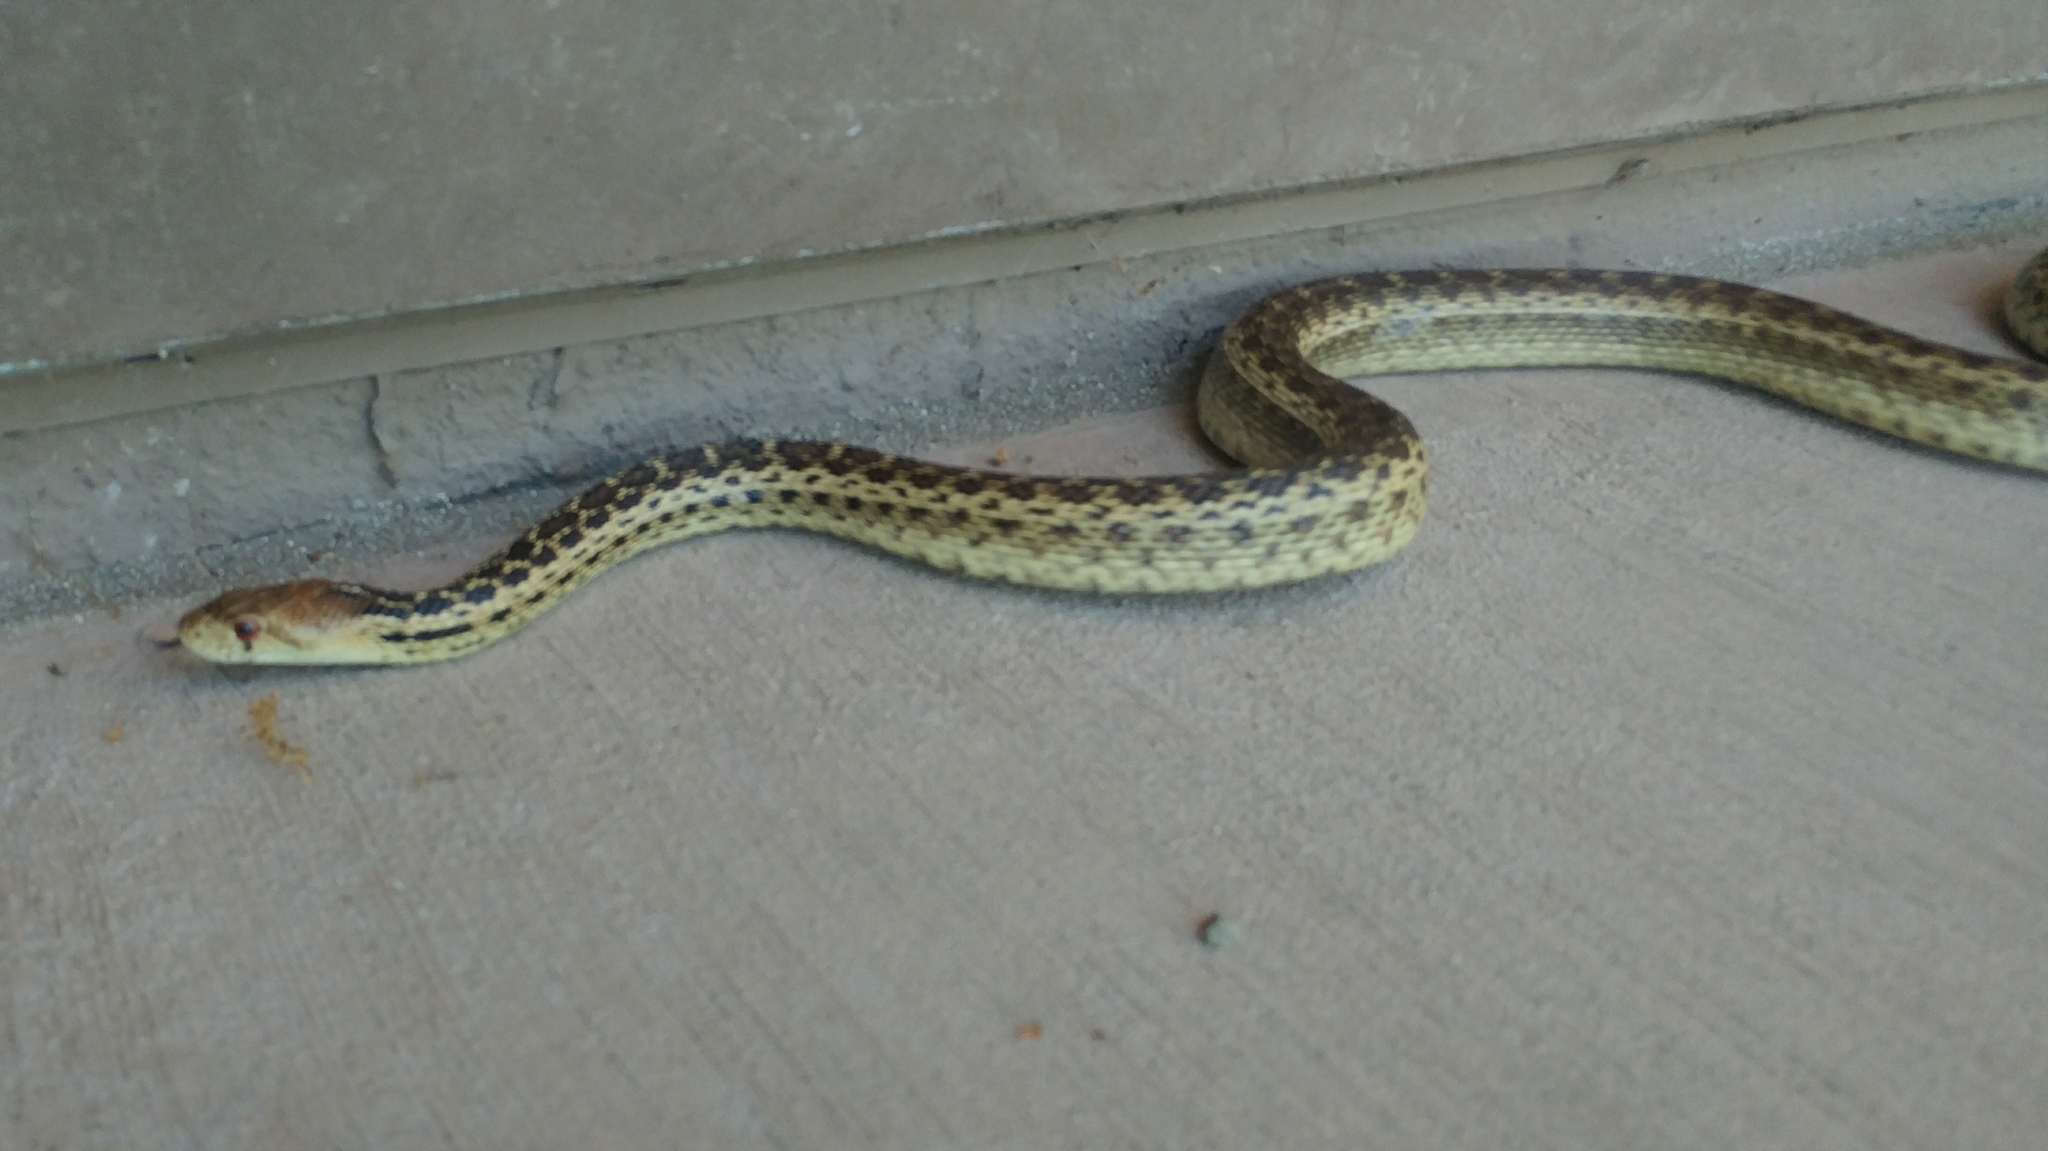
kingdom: Animalia
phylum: Chordata
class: Squamata
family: Colubridae
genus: Pituophis
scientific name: Pituophis catenifer
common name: Gopher snake
